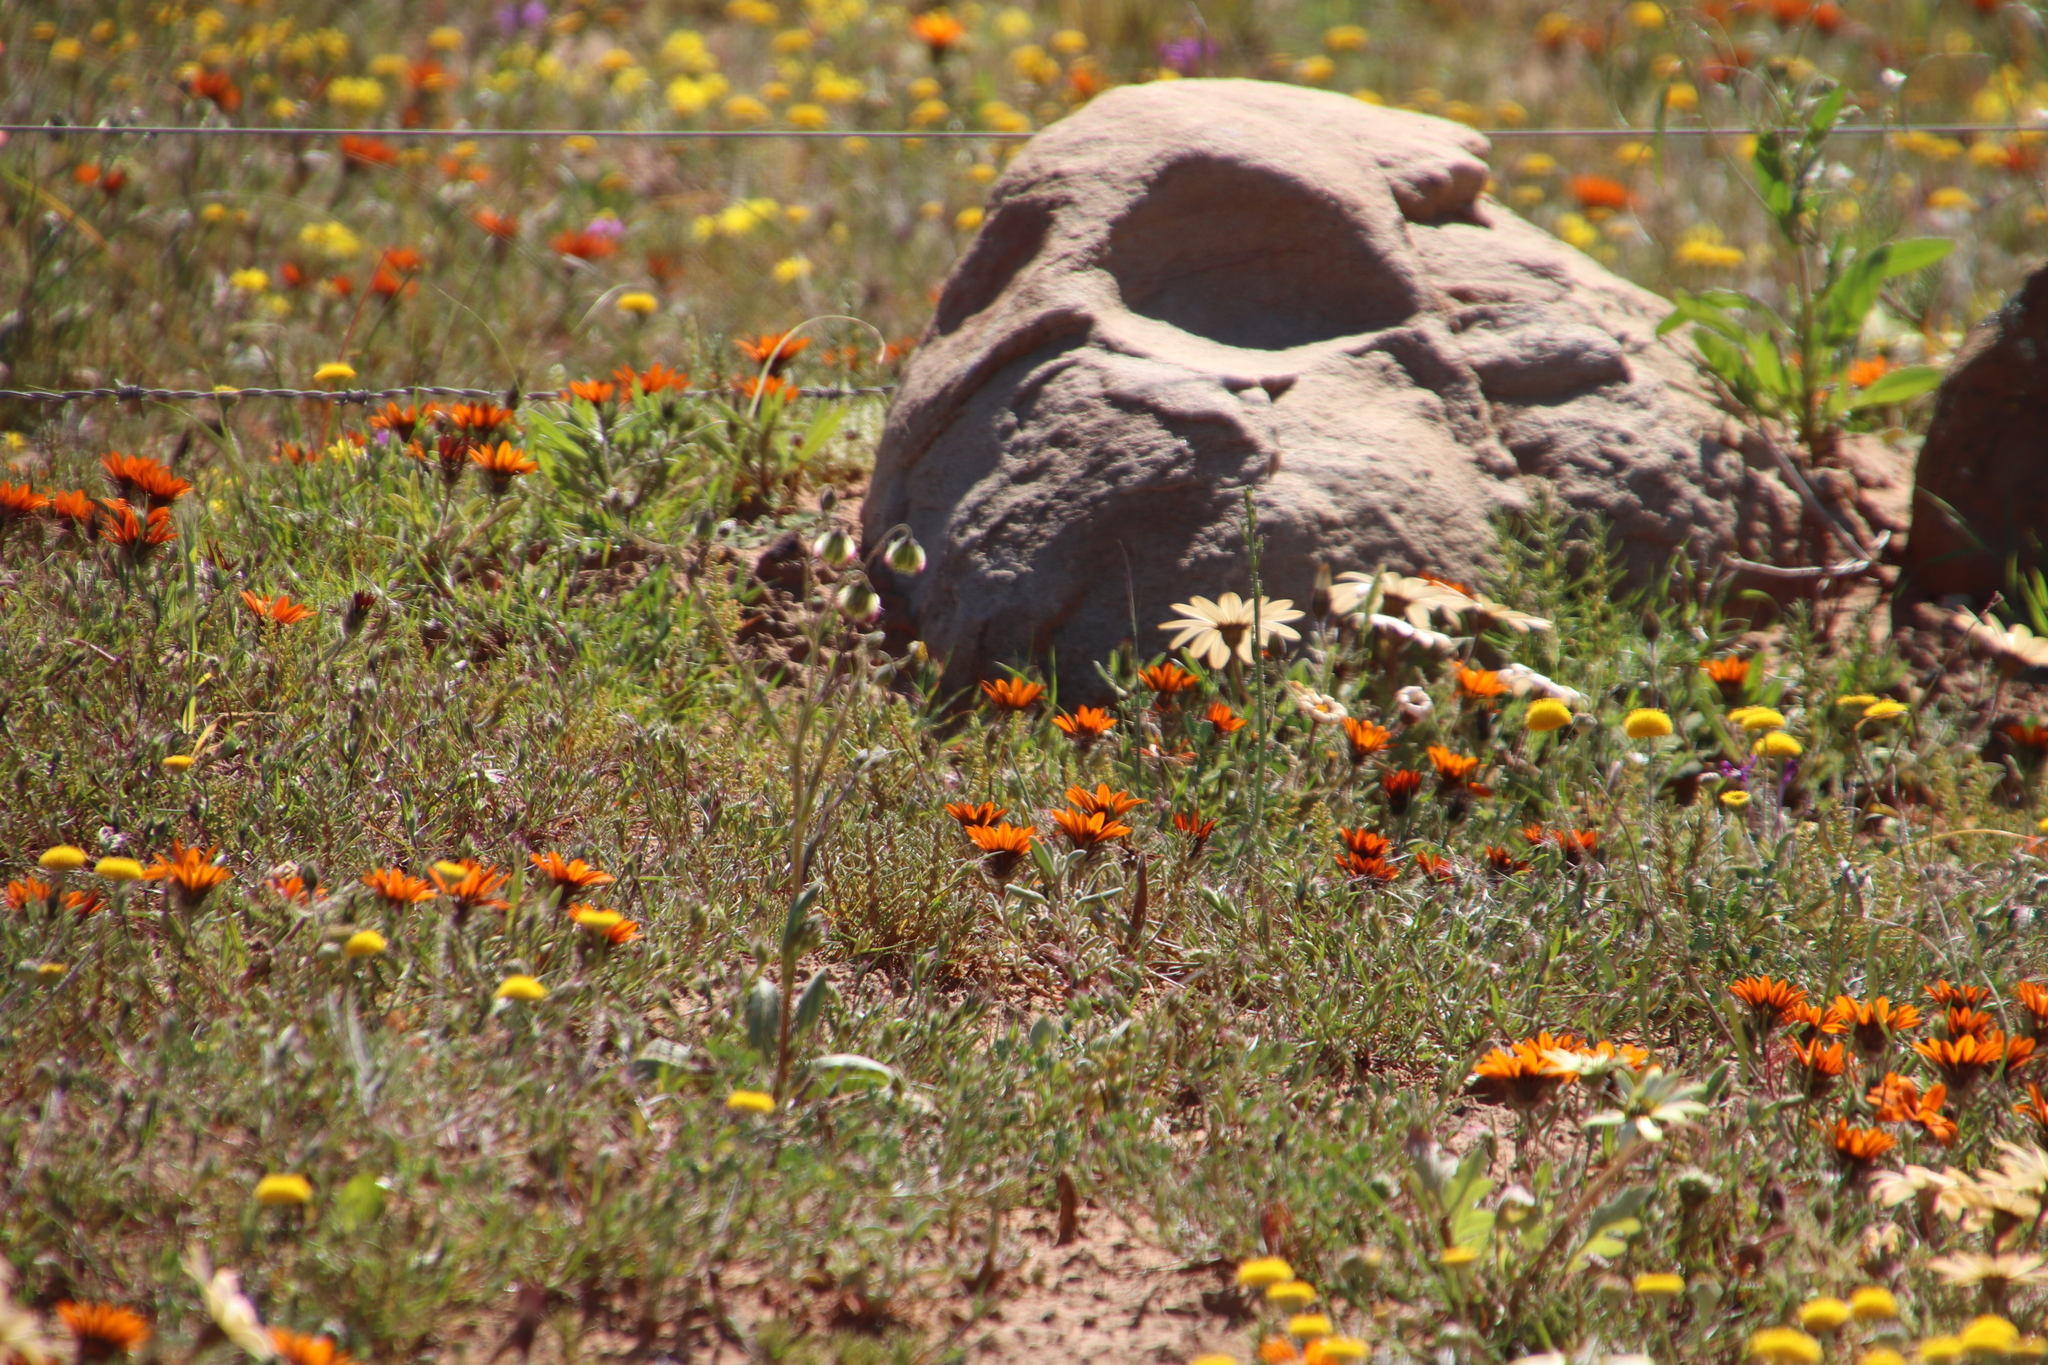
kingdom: Plantae
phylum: Tracheophyta
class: Magnoliopsida
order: Asterales
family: Asteraceae
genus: Gorteria
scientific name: Gorteria diffusa
